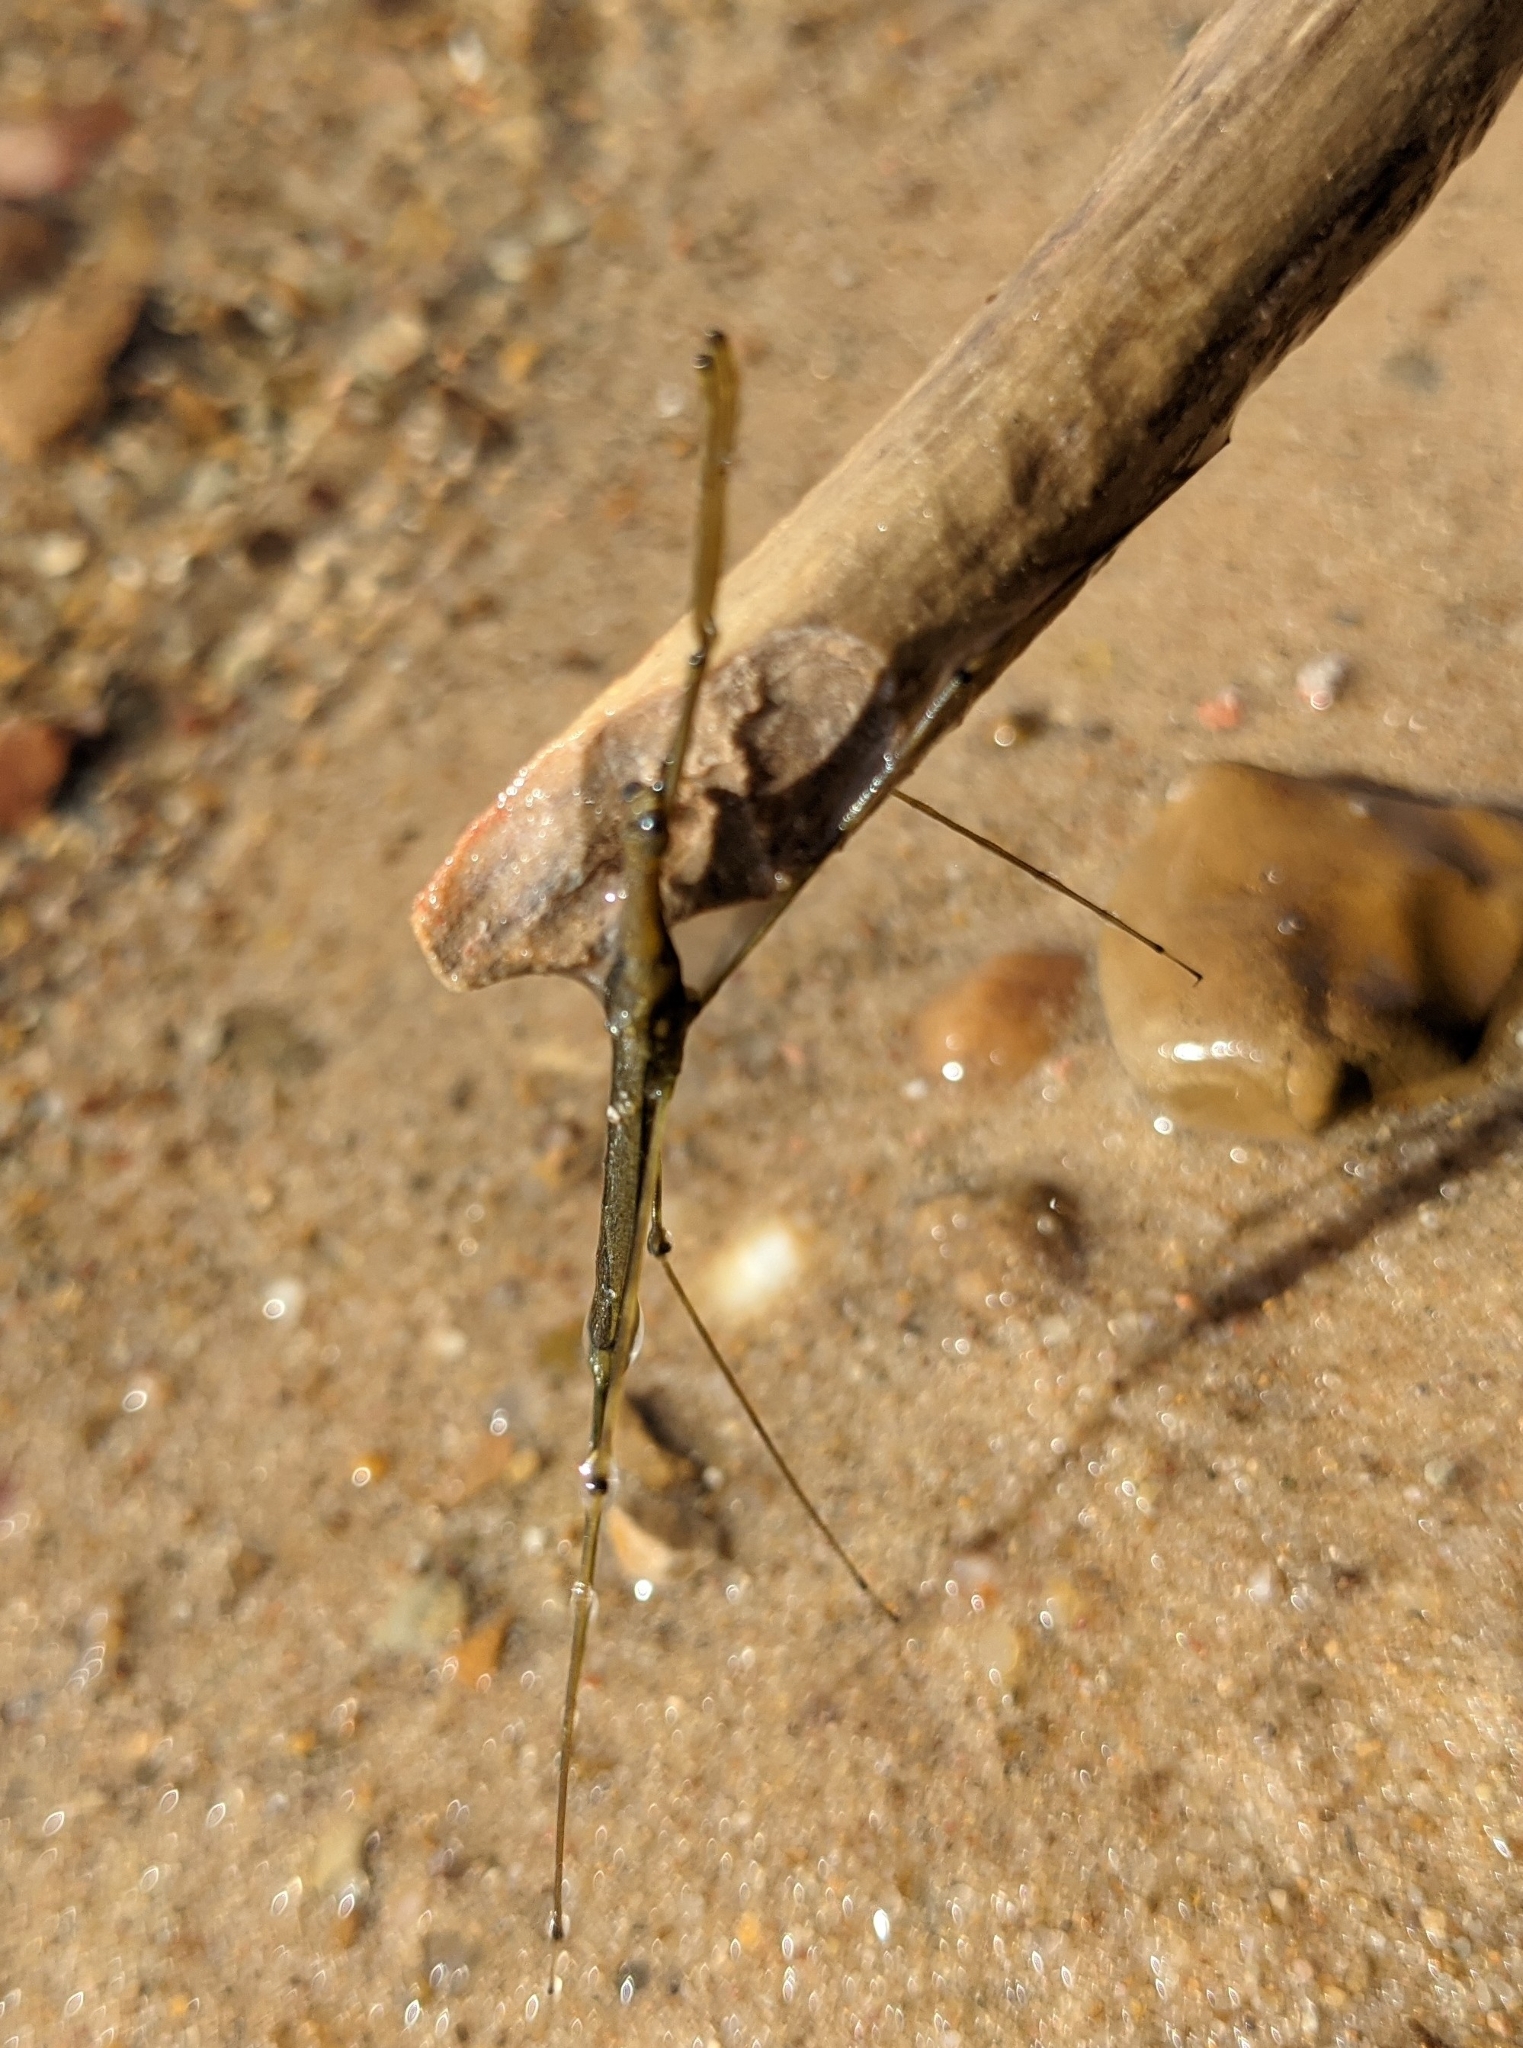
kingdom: Animalia
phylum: Arthropoda
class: Insecta
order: Hemiptera
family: Nepidae
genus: Ranatra
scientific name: Ranatra
